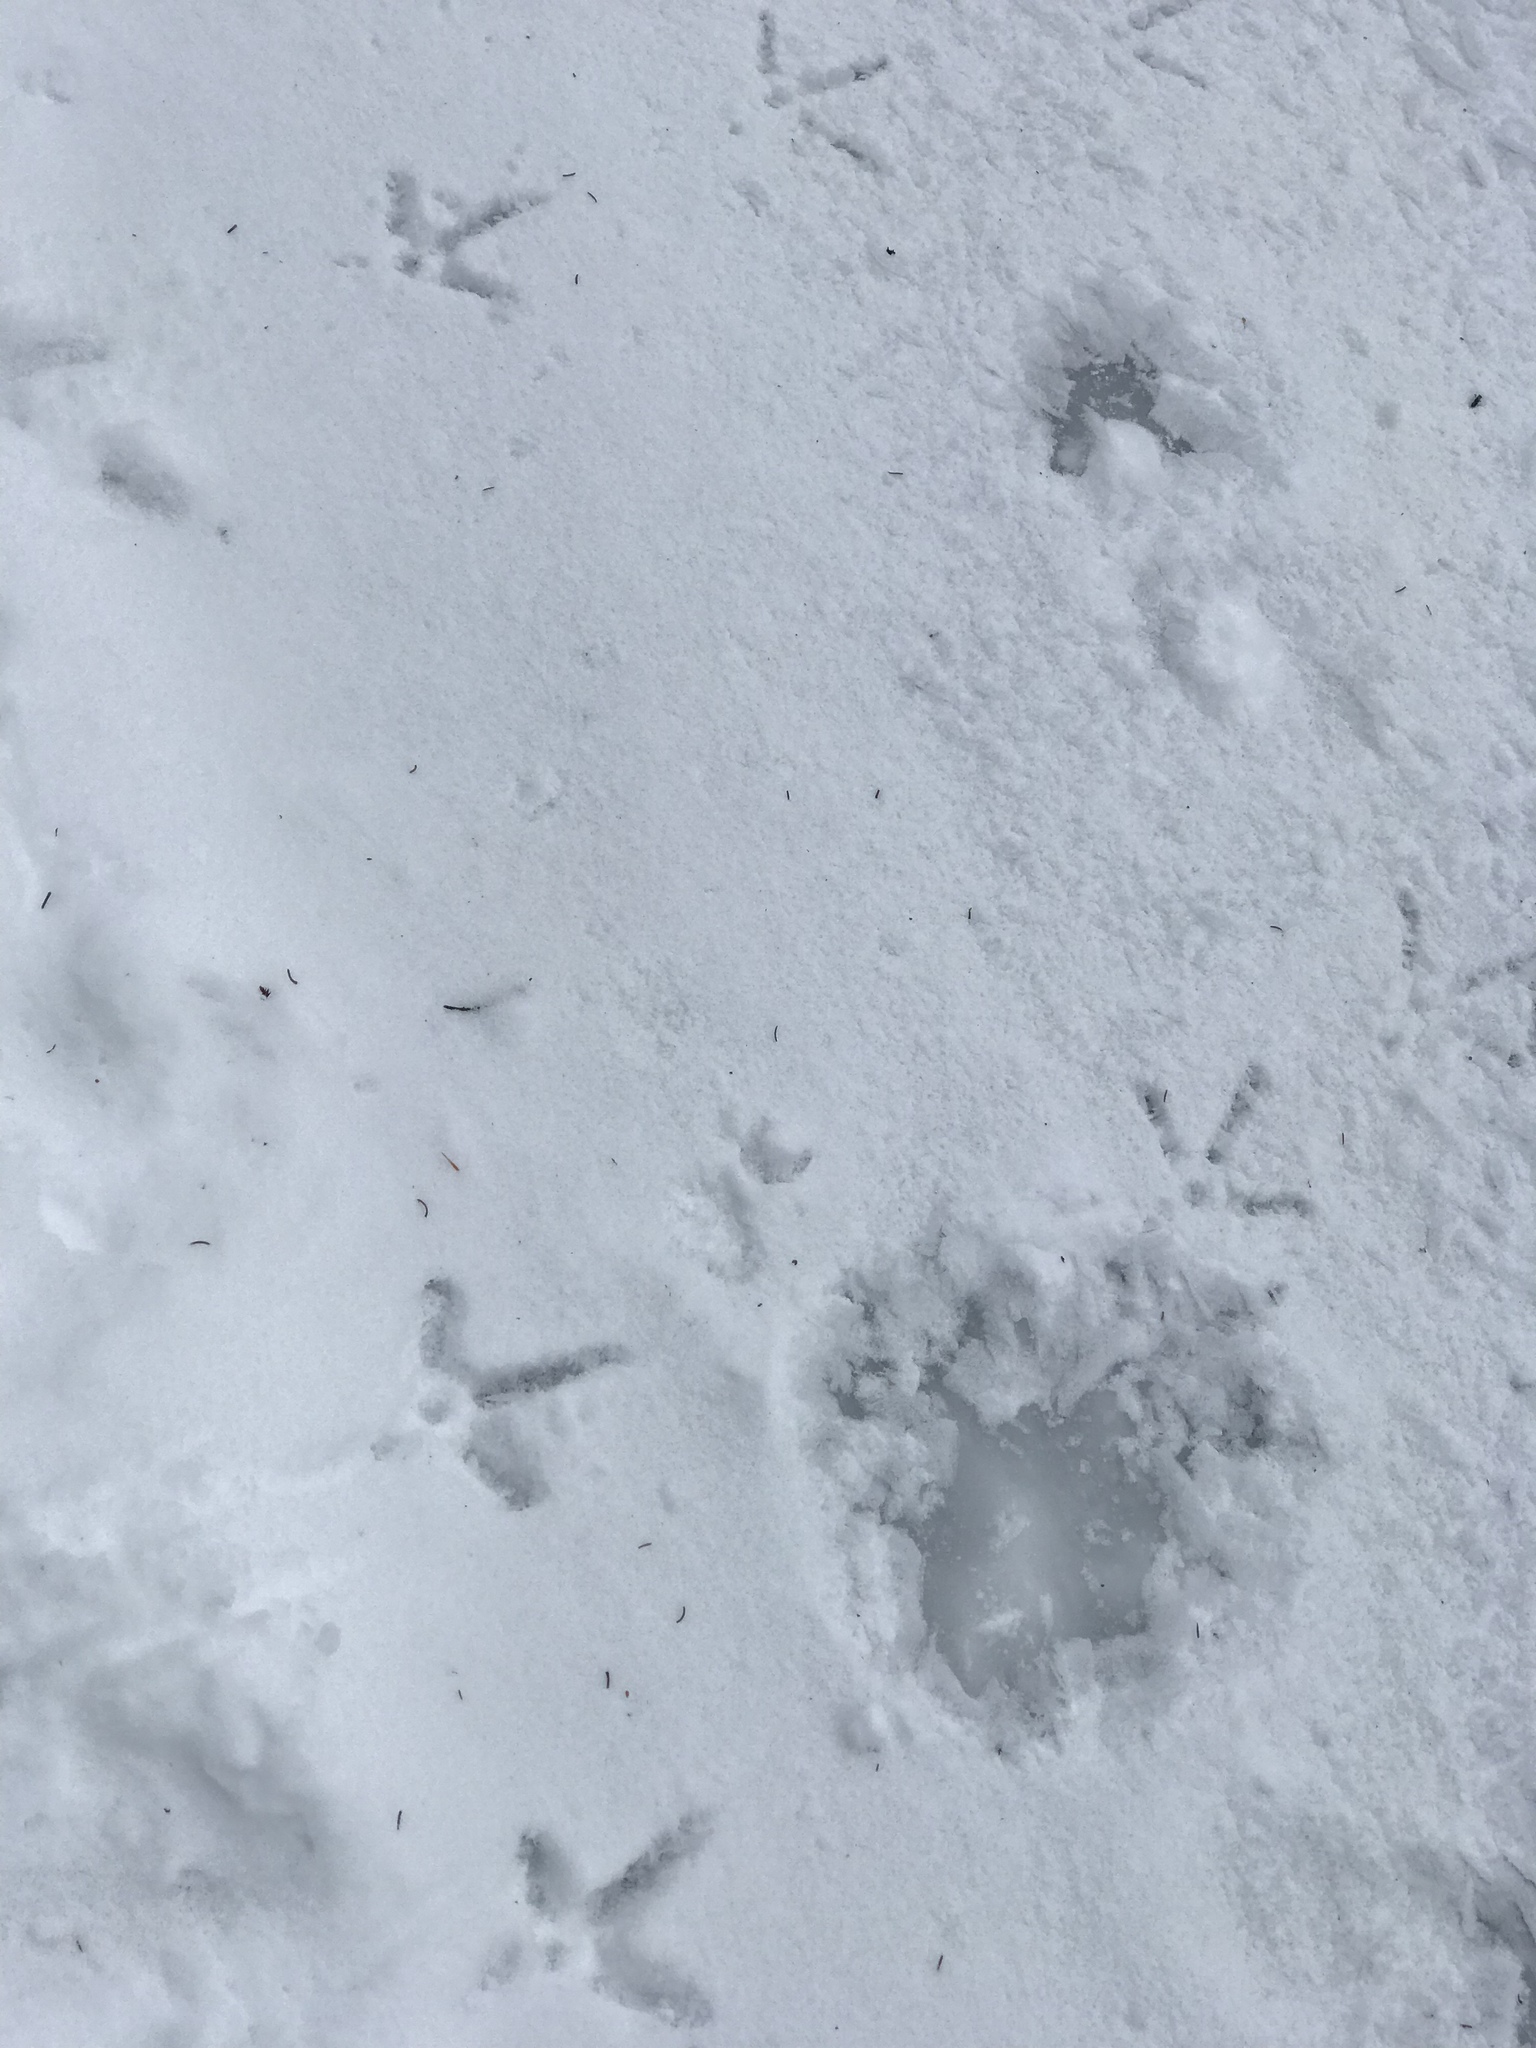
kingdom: Animalia
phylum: Chordata
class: Aves
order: Galliformes
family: Phasianidae
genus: Meleagris
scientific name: Meleagris gallopavo
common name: Wild turkey
